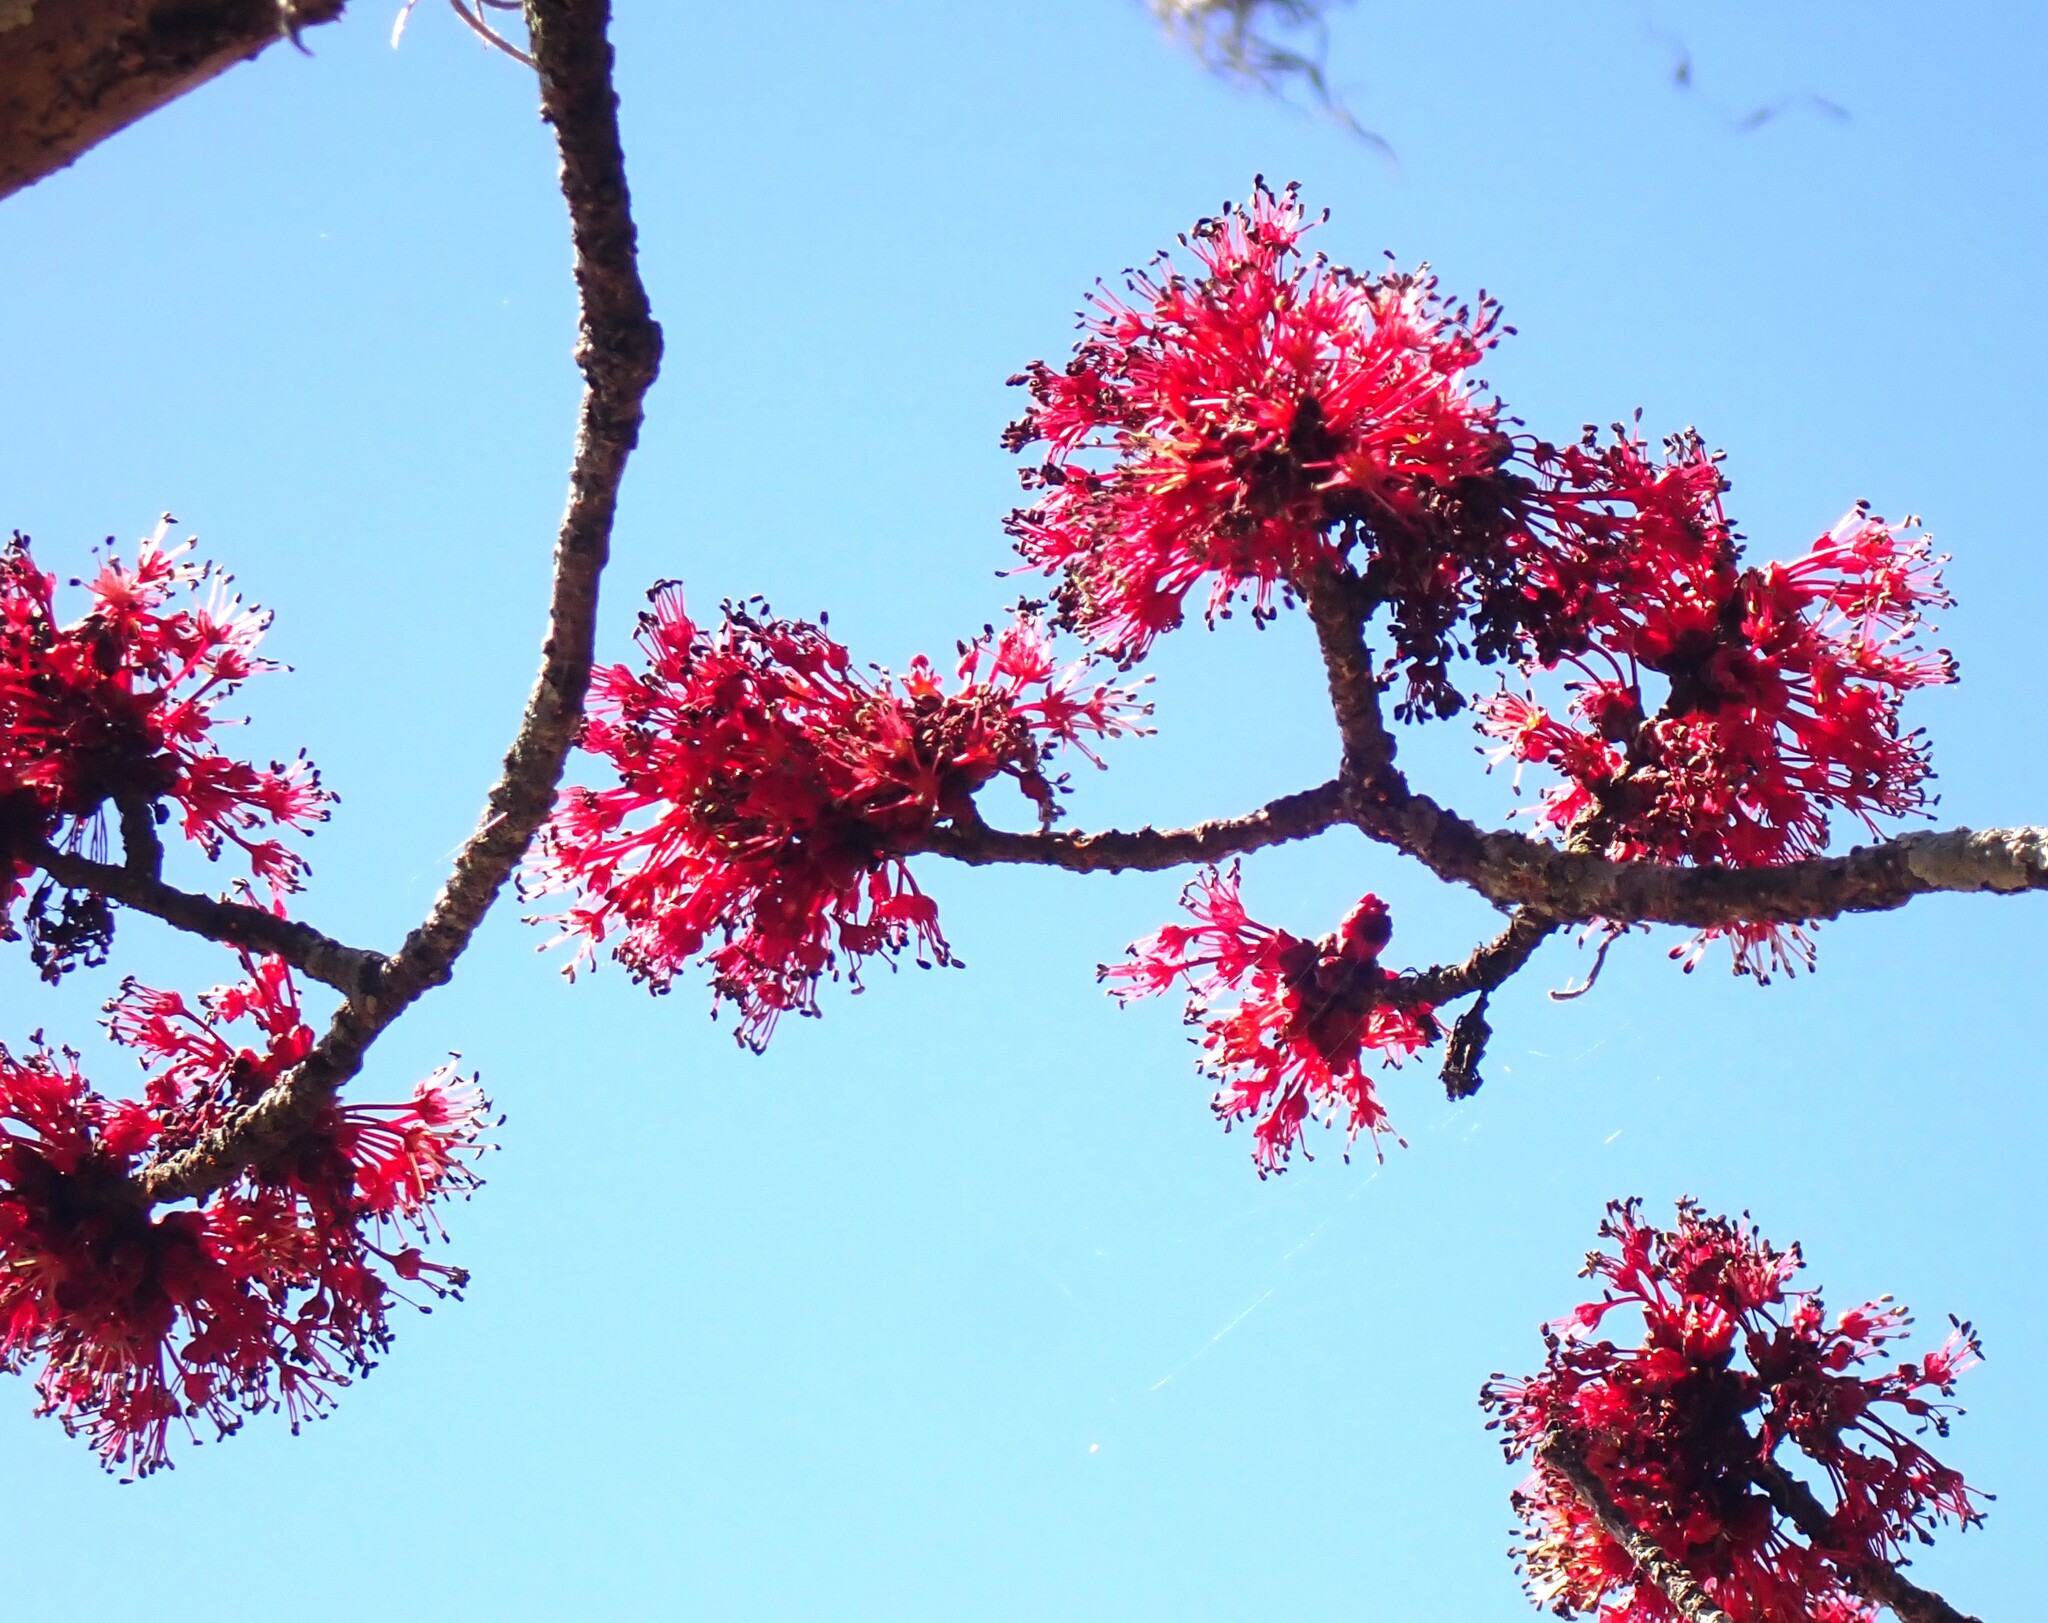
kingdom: Plantae
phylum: Tracheophyta
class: Magnoliopsida
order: Sapindales
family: Sapindaceae
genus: Acer
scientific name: Acer rubrum
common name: Red maple
